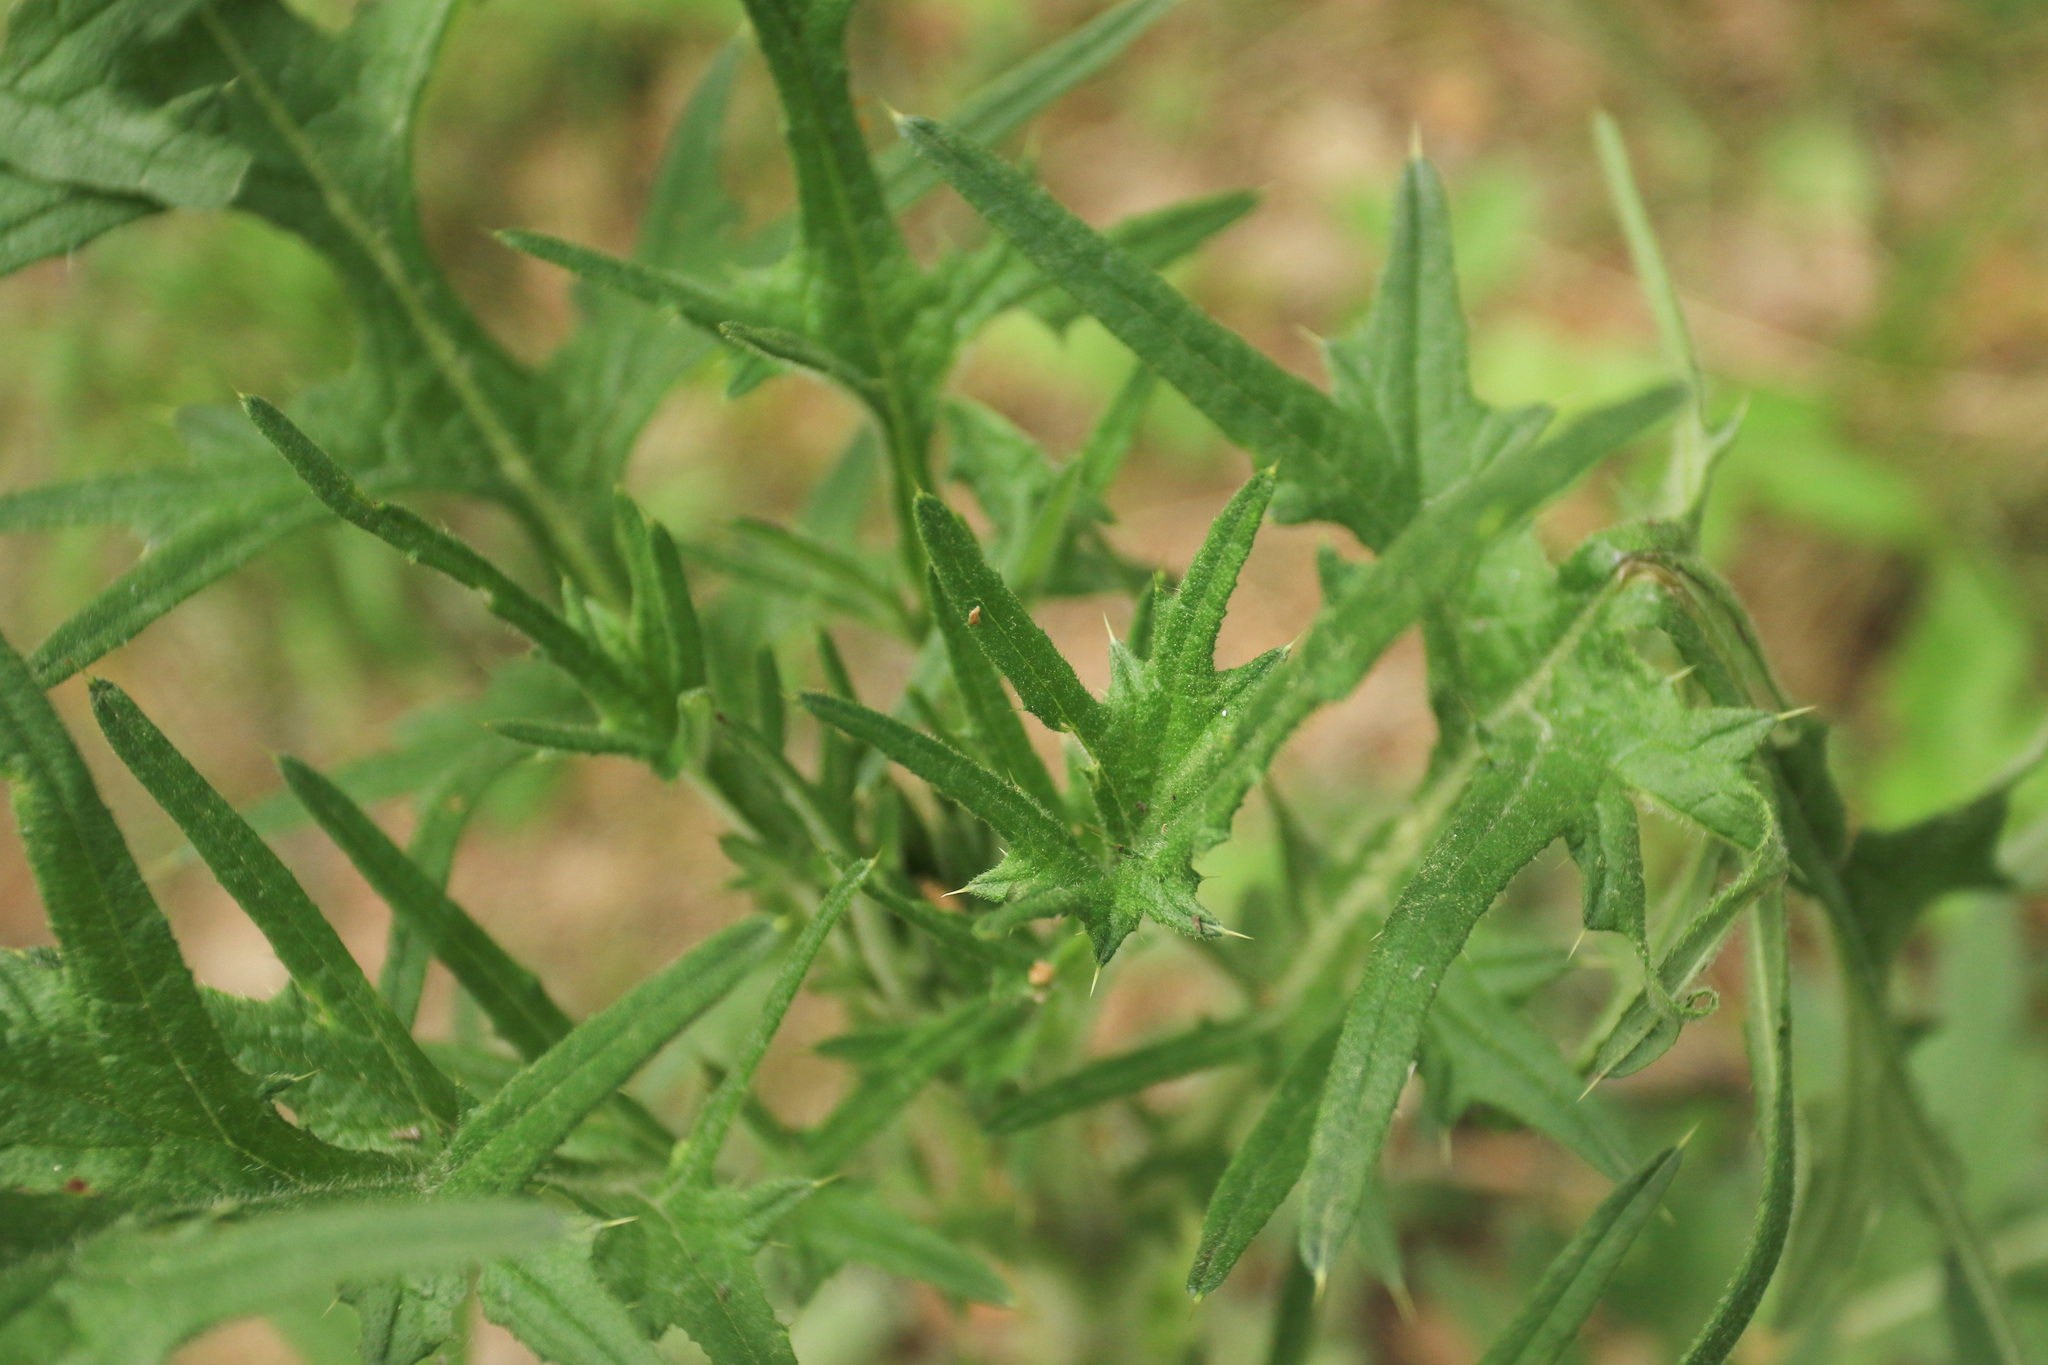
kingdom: Plantae
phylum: Tracheophyta
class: Magnoliopsida
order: Asterales
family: Asteraceae
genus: Cirsium
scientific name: Cirsium vulgare
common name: Bull thistle
